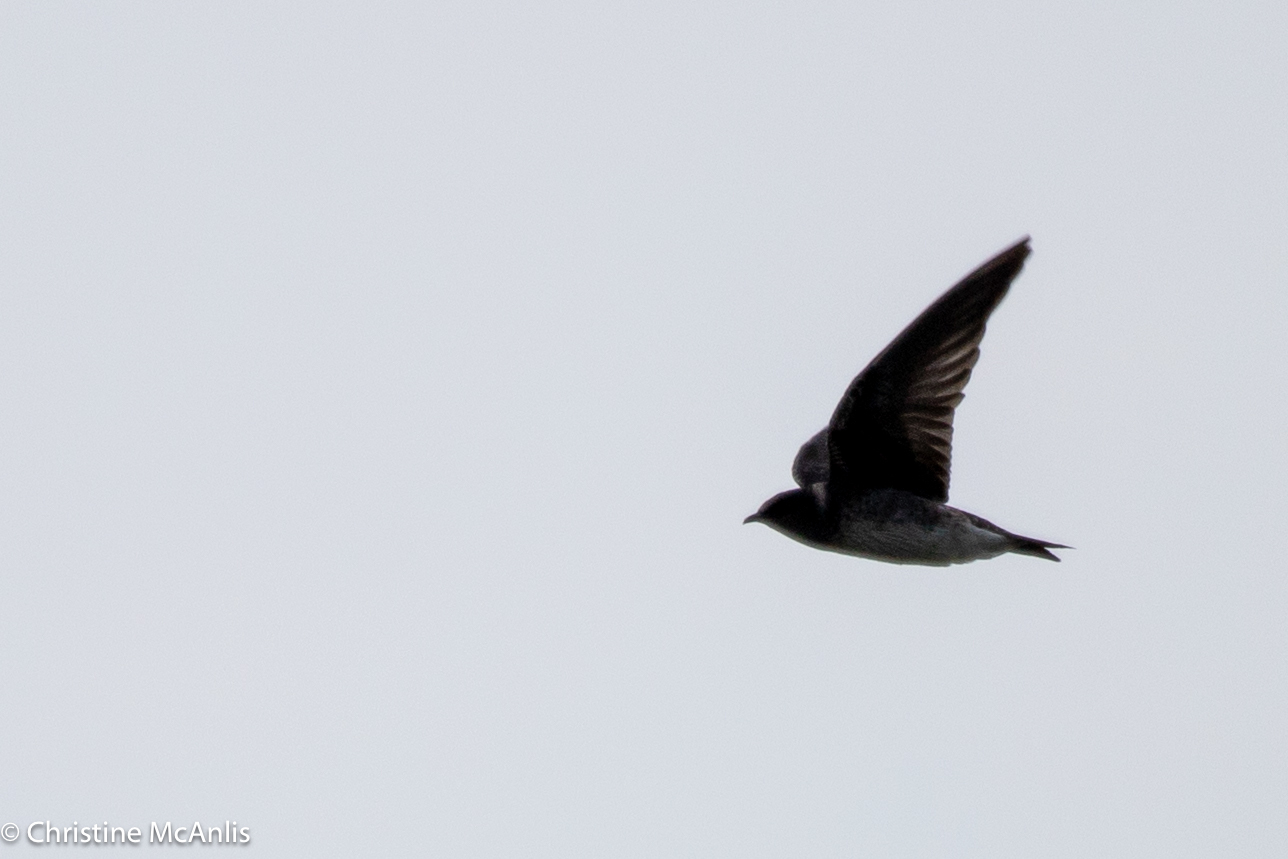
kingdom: Animalia
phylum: Chordata
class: Aves
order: Passeriformes
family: Hirundinidae
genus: Progne
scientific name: Progne subis
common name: Purple martin
